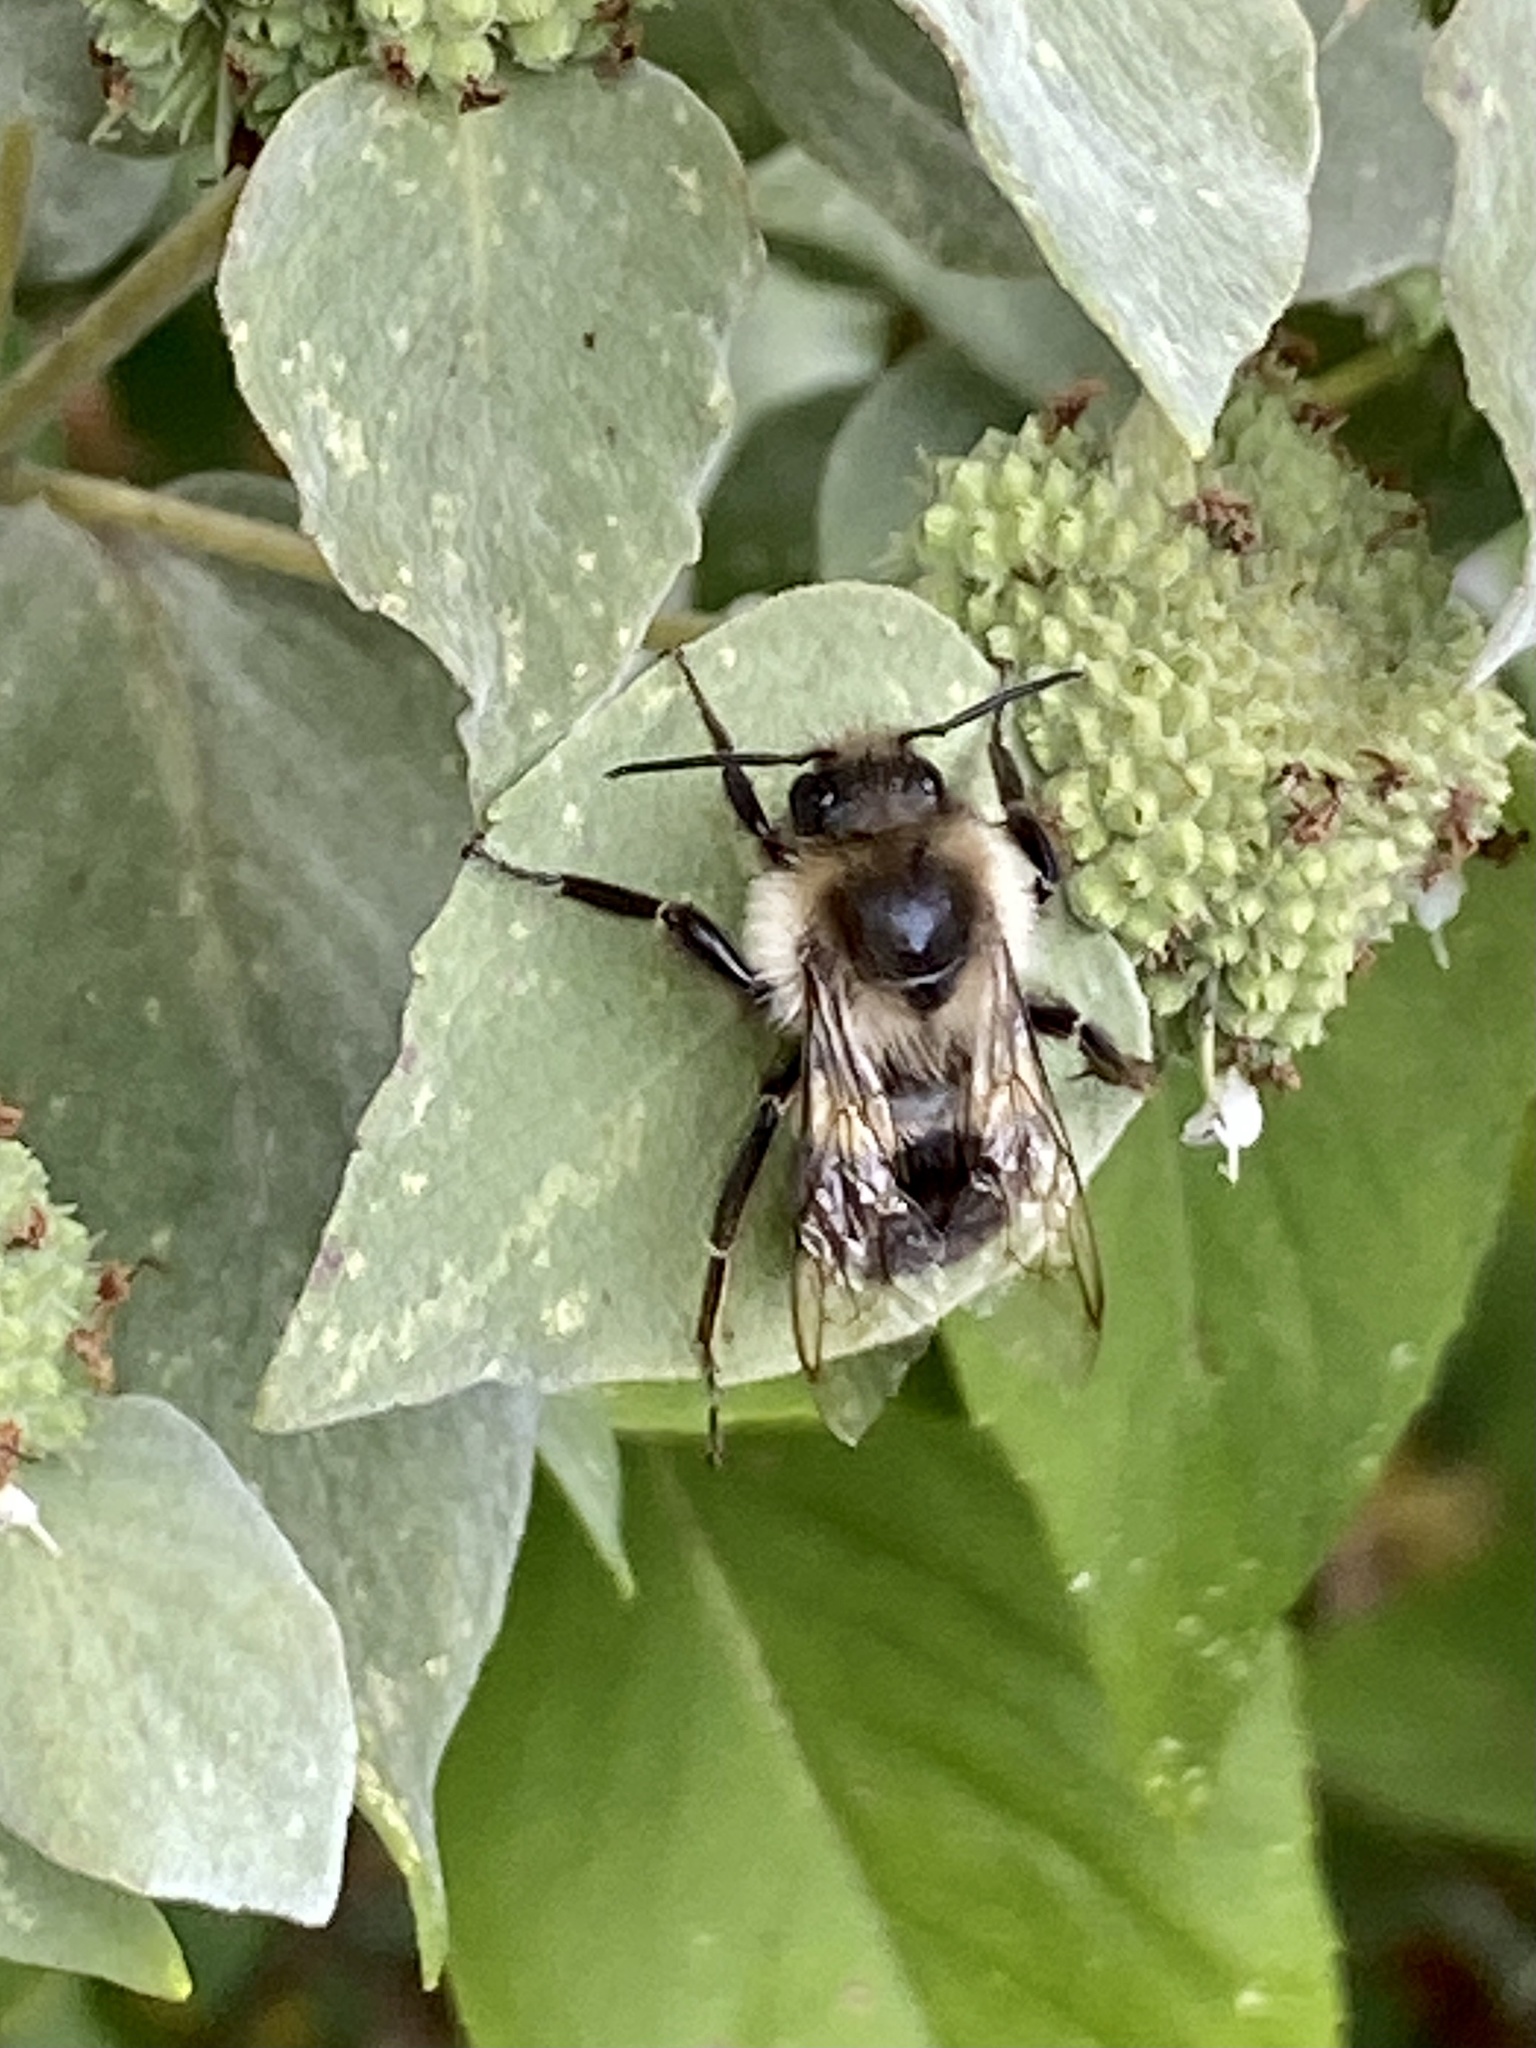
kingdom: Animalia
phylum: Arthropoda
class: Insecta
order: Hymenoptera
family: Apidae
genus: Bombus
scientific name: Bombus impatiens
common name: Common eastern bumble bee
